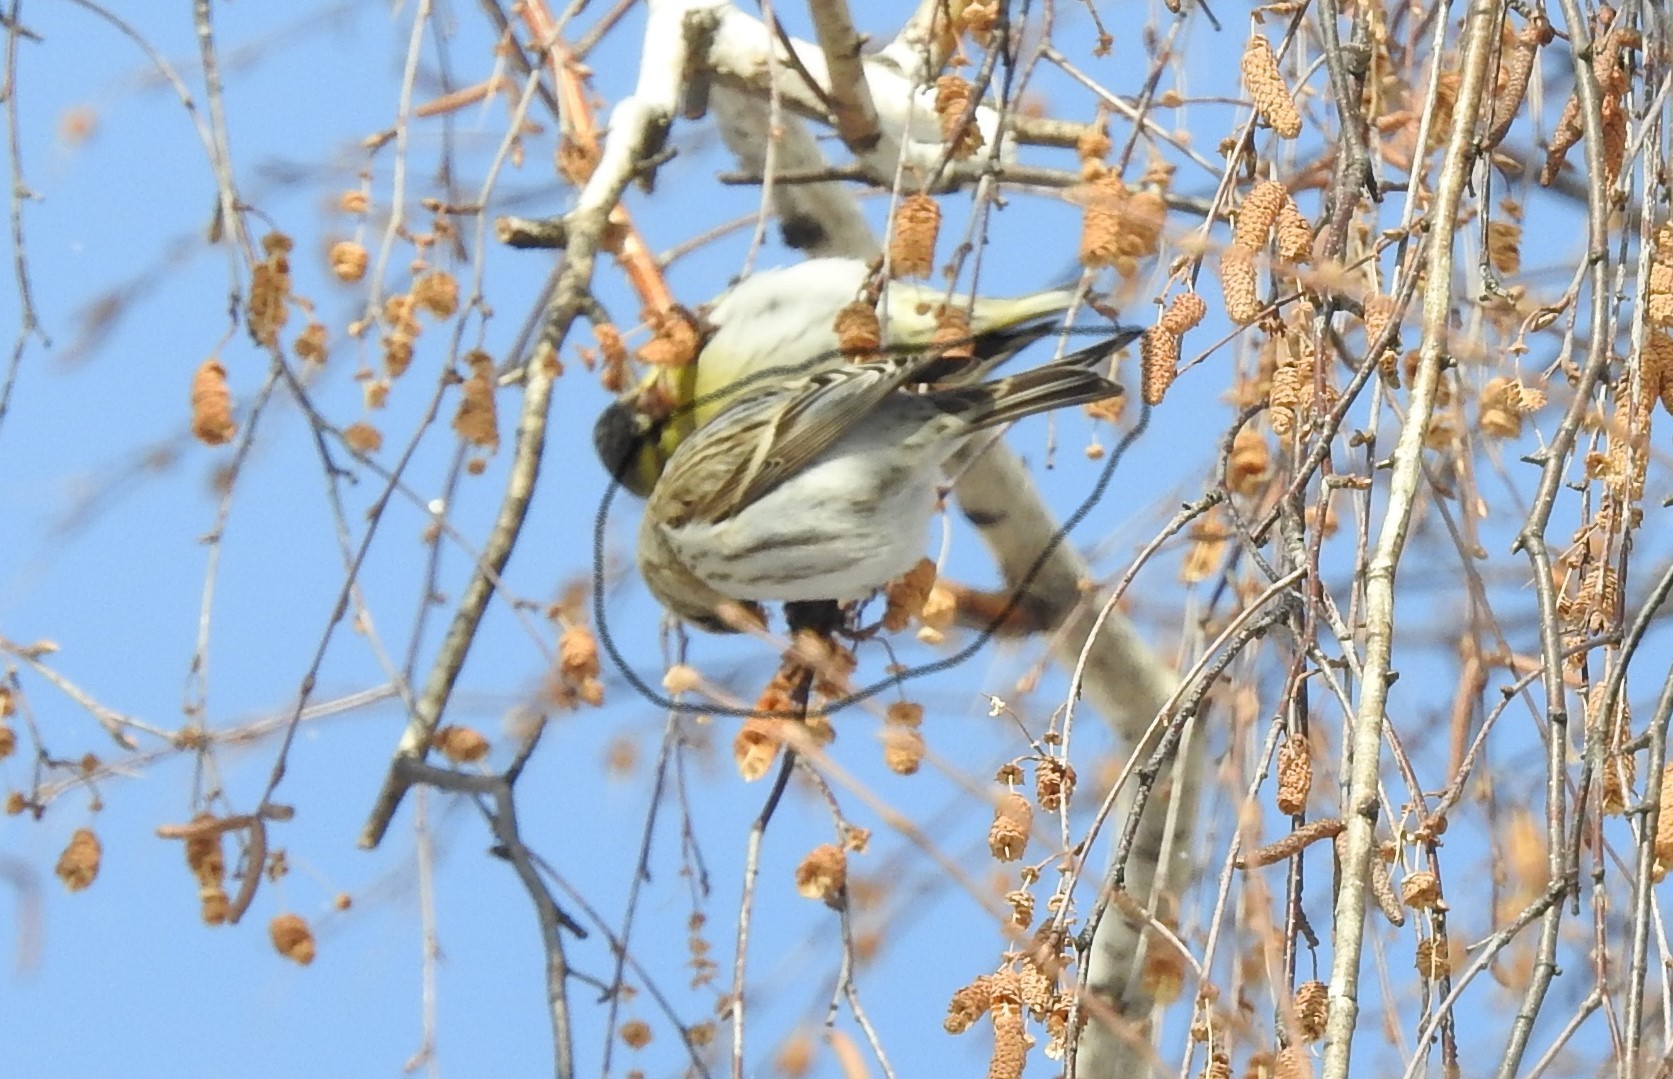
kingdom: Animalia
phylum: Chordata
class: Aves
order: Passeriformes
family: Fringillidae
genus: Acanthis
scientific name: Acanthis flammea
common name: Common redpoll
